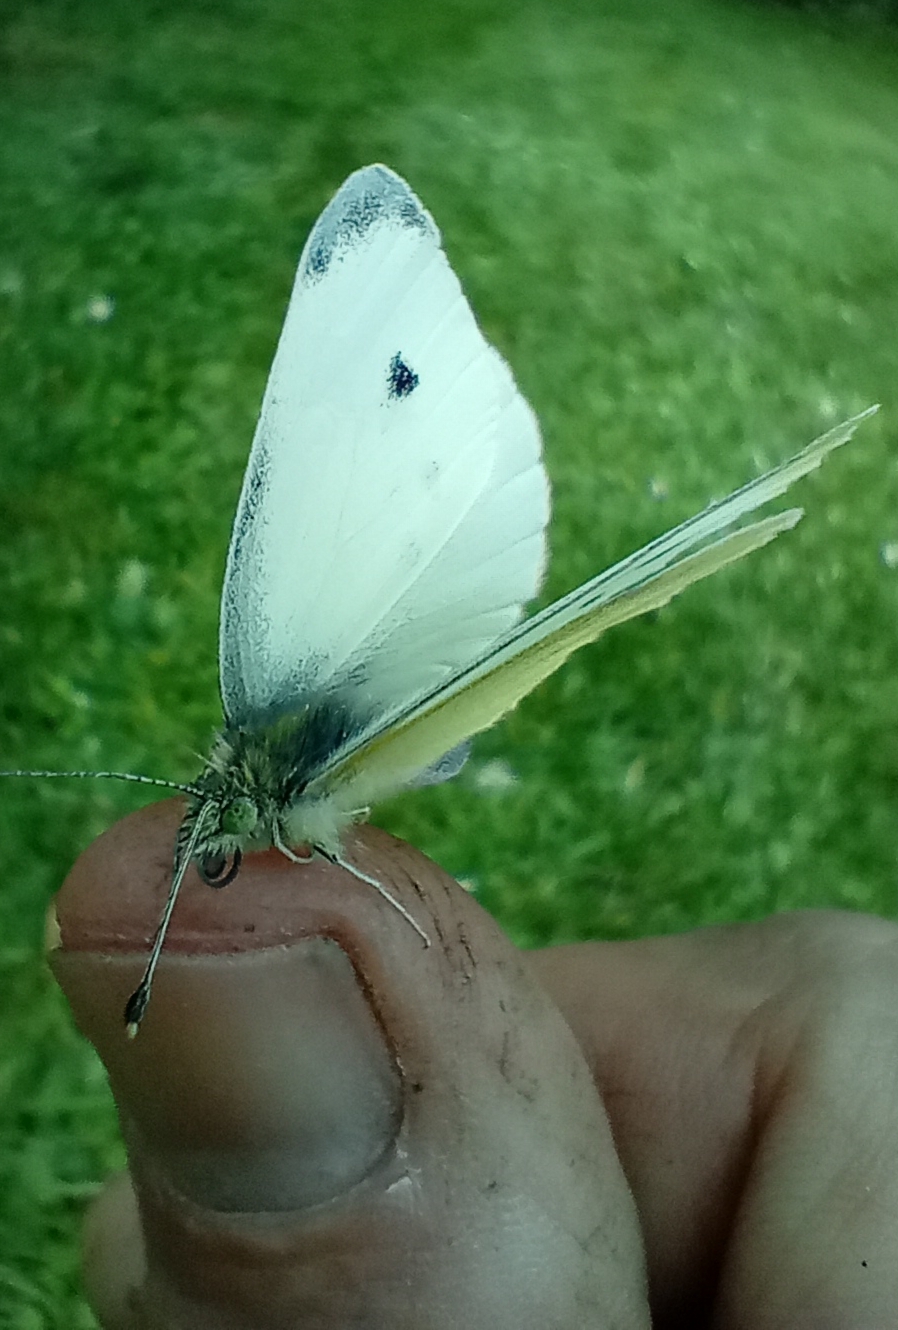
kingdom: Animalia
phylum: Arthropoda
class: Insecta
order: Lepidoptera
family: Pieridae
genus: Pieris
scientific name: Pieris rapae
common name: Small white
